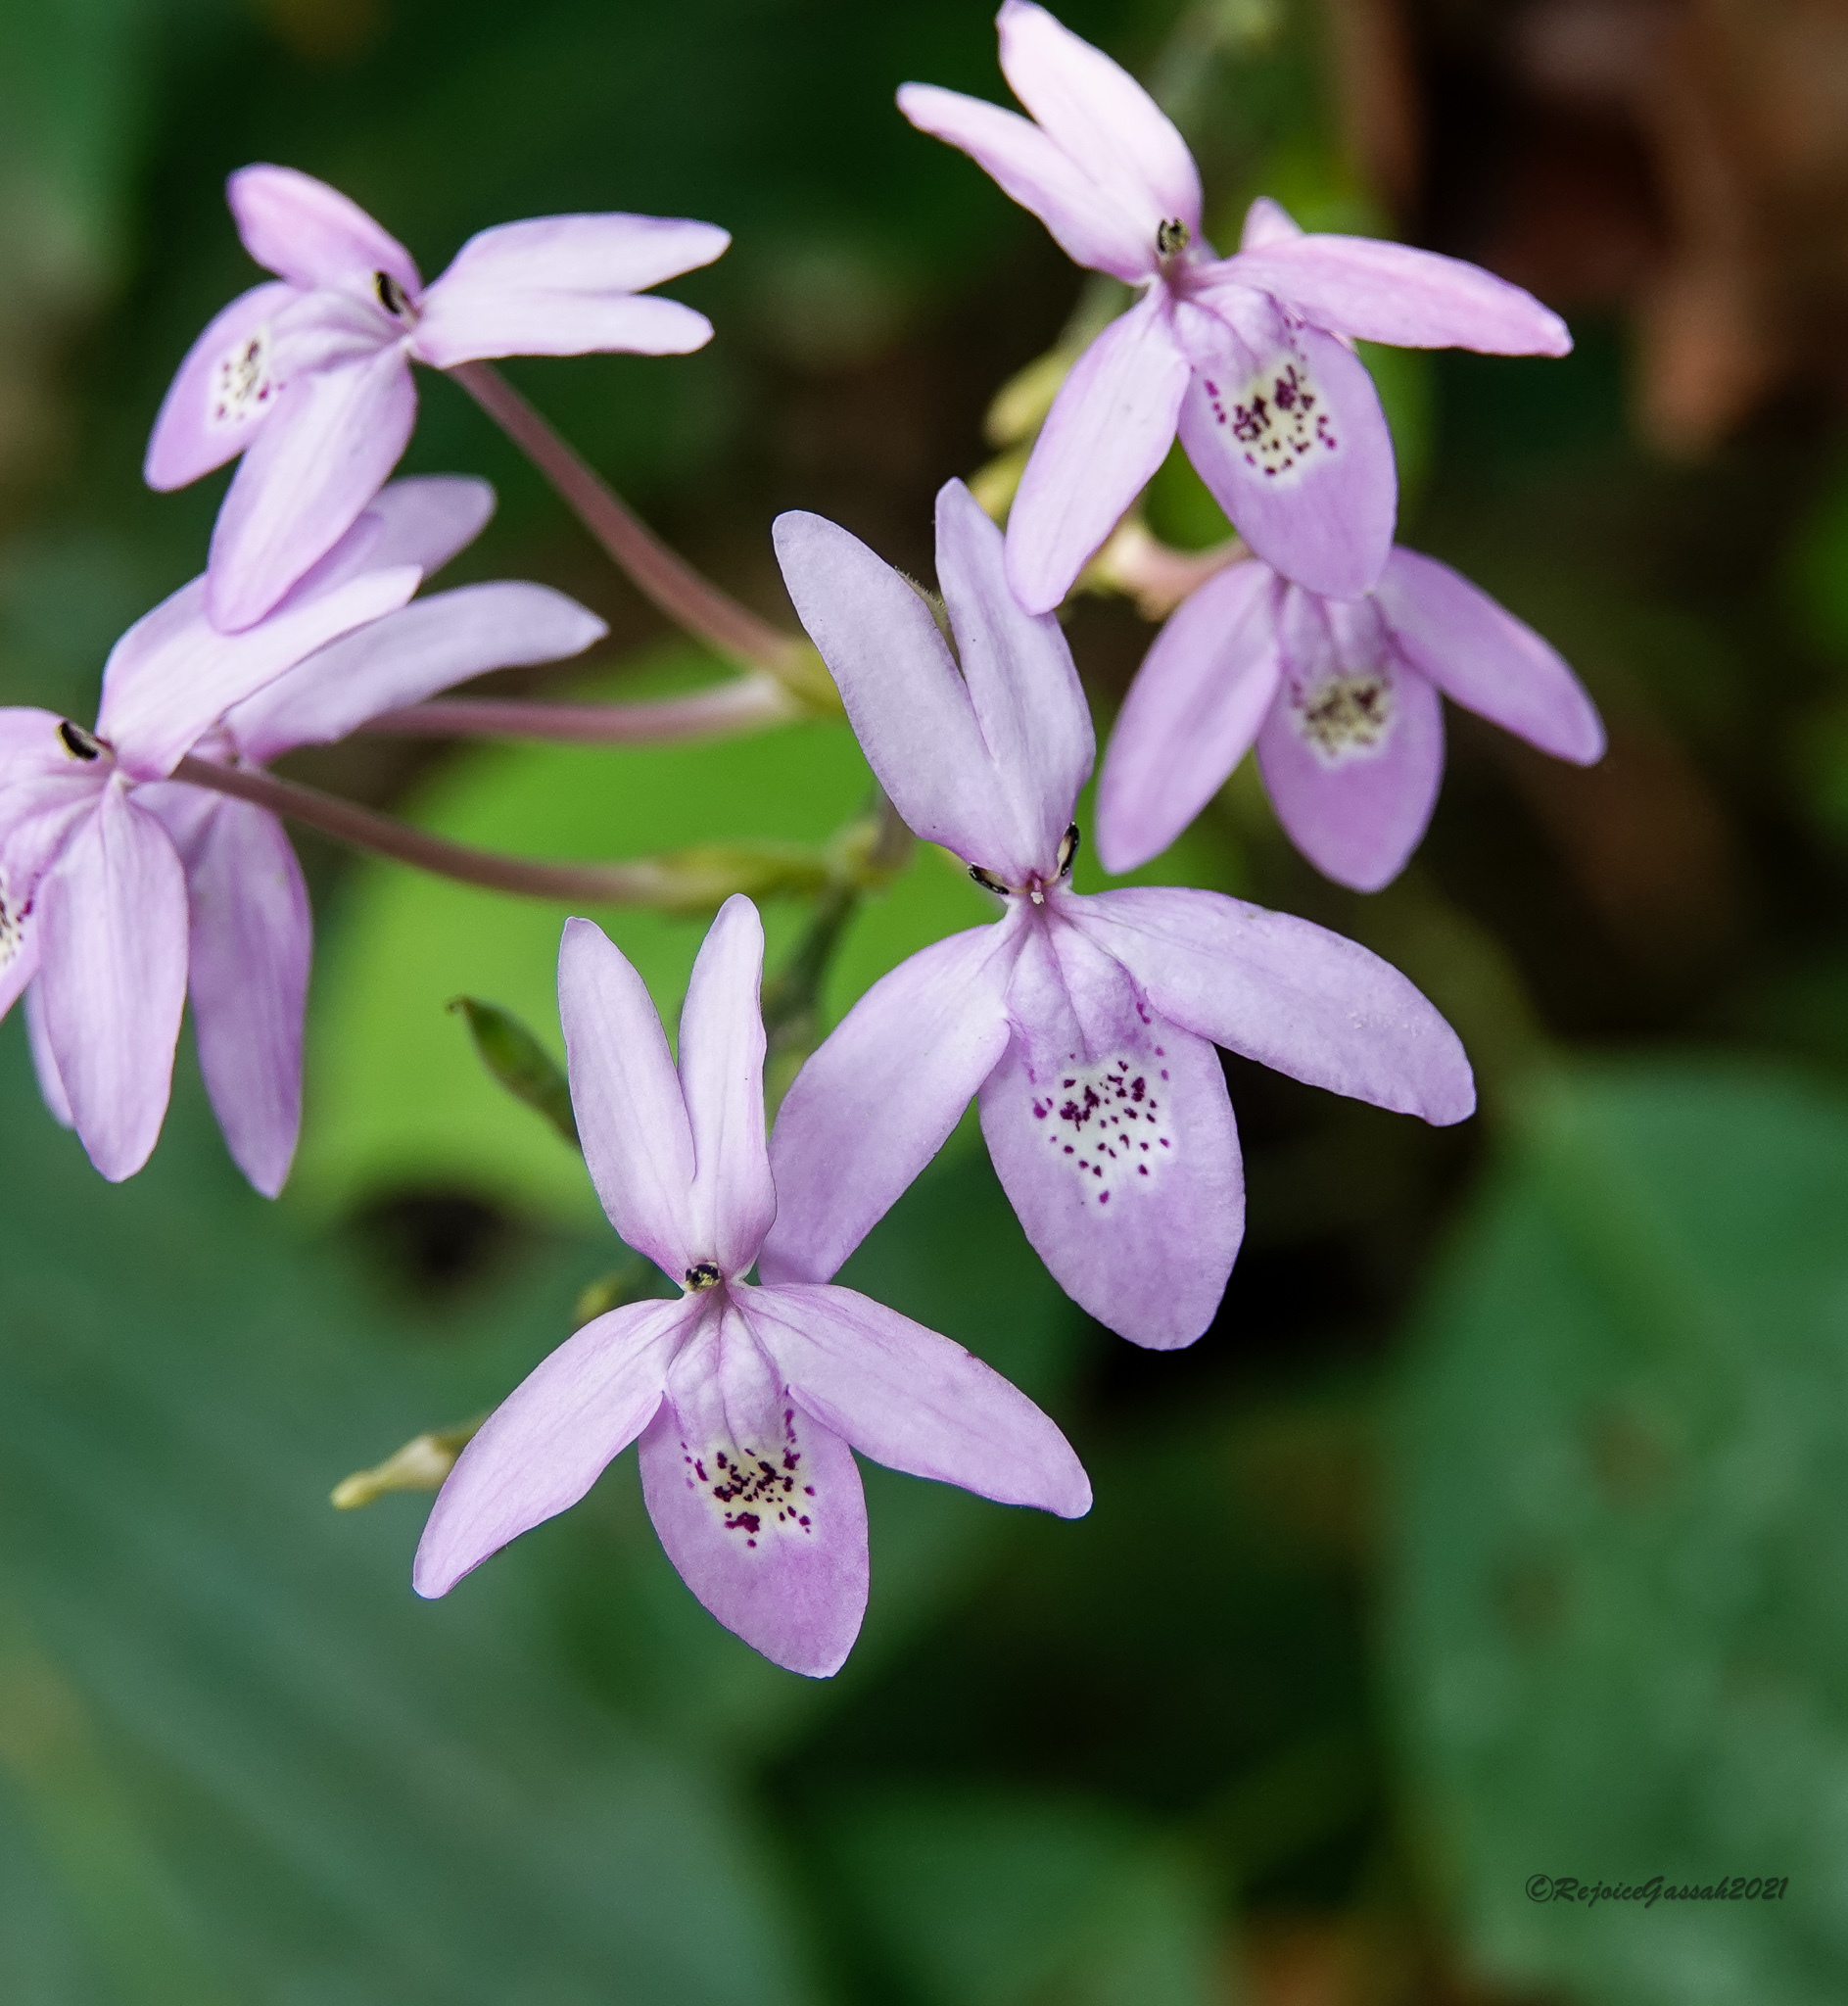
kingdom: Plantae
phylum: Tracheophyta
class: Magnoliopsida
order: Lamiales
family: Acanthaceae
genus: Pseuderanthemum
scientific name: Pseuderanthemum latifolium
